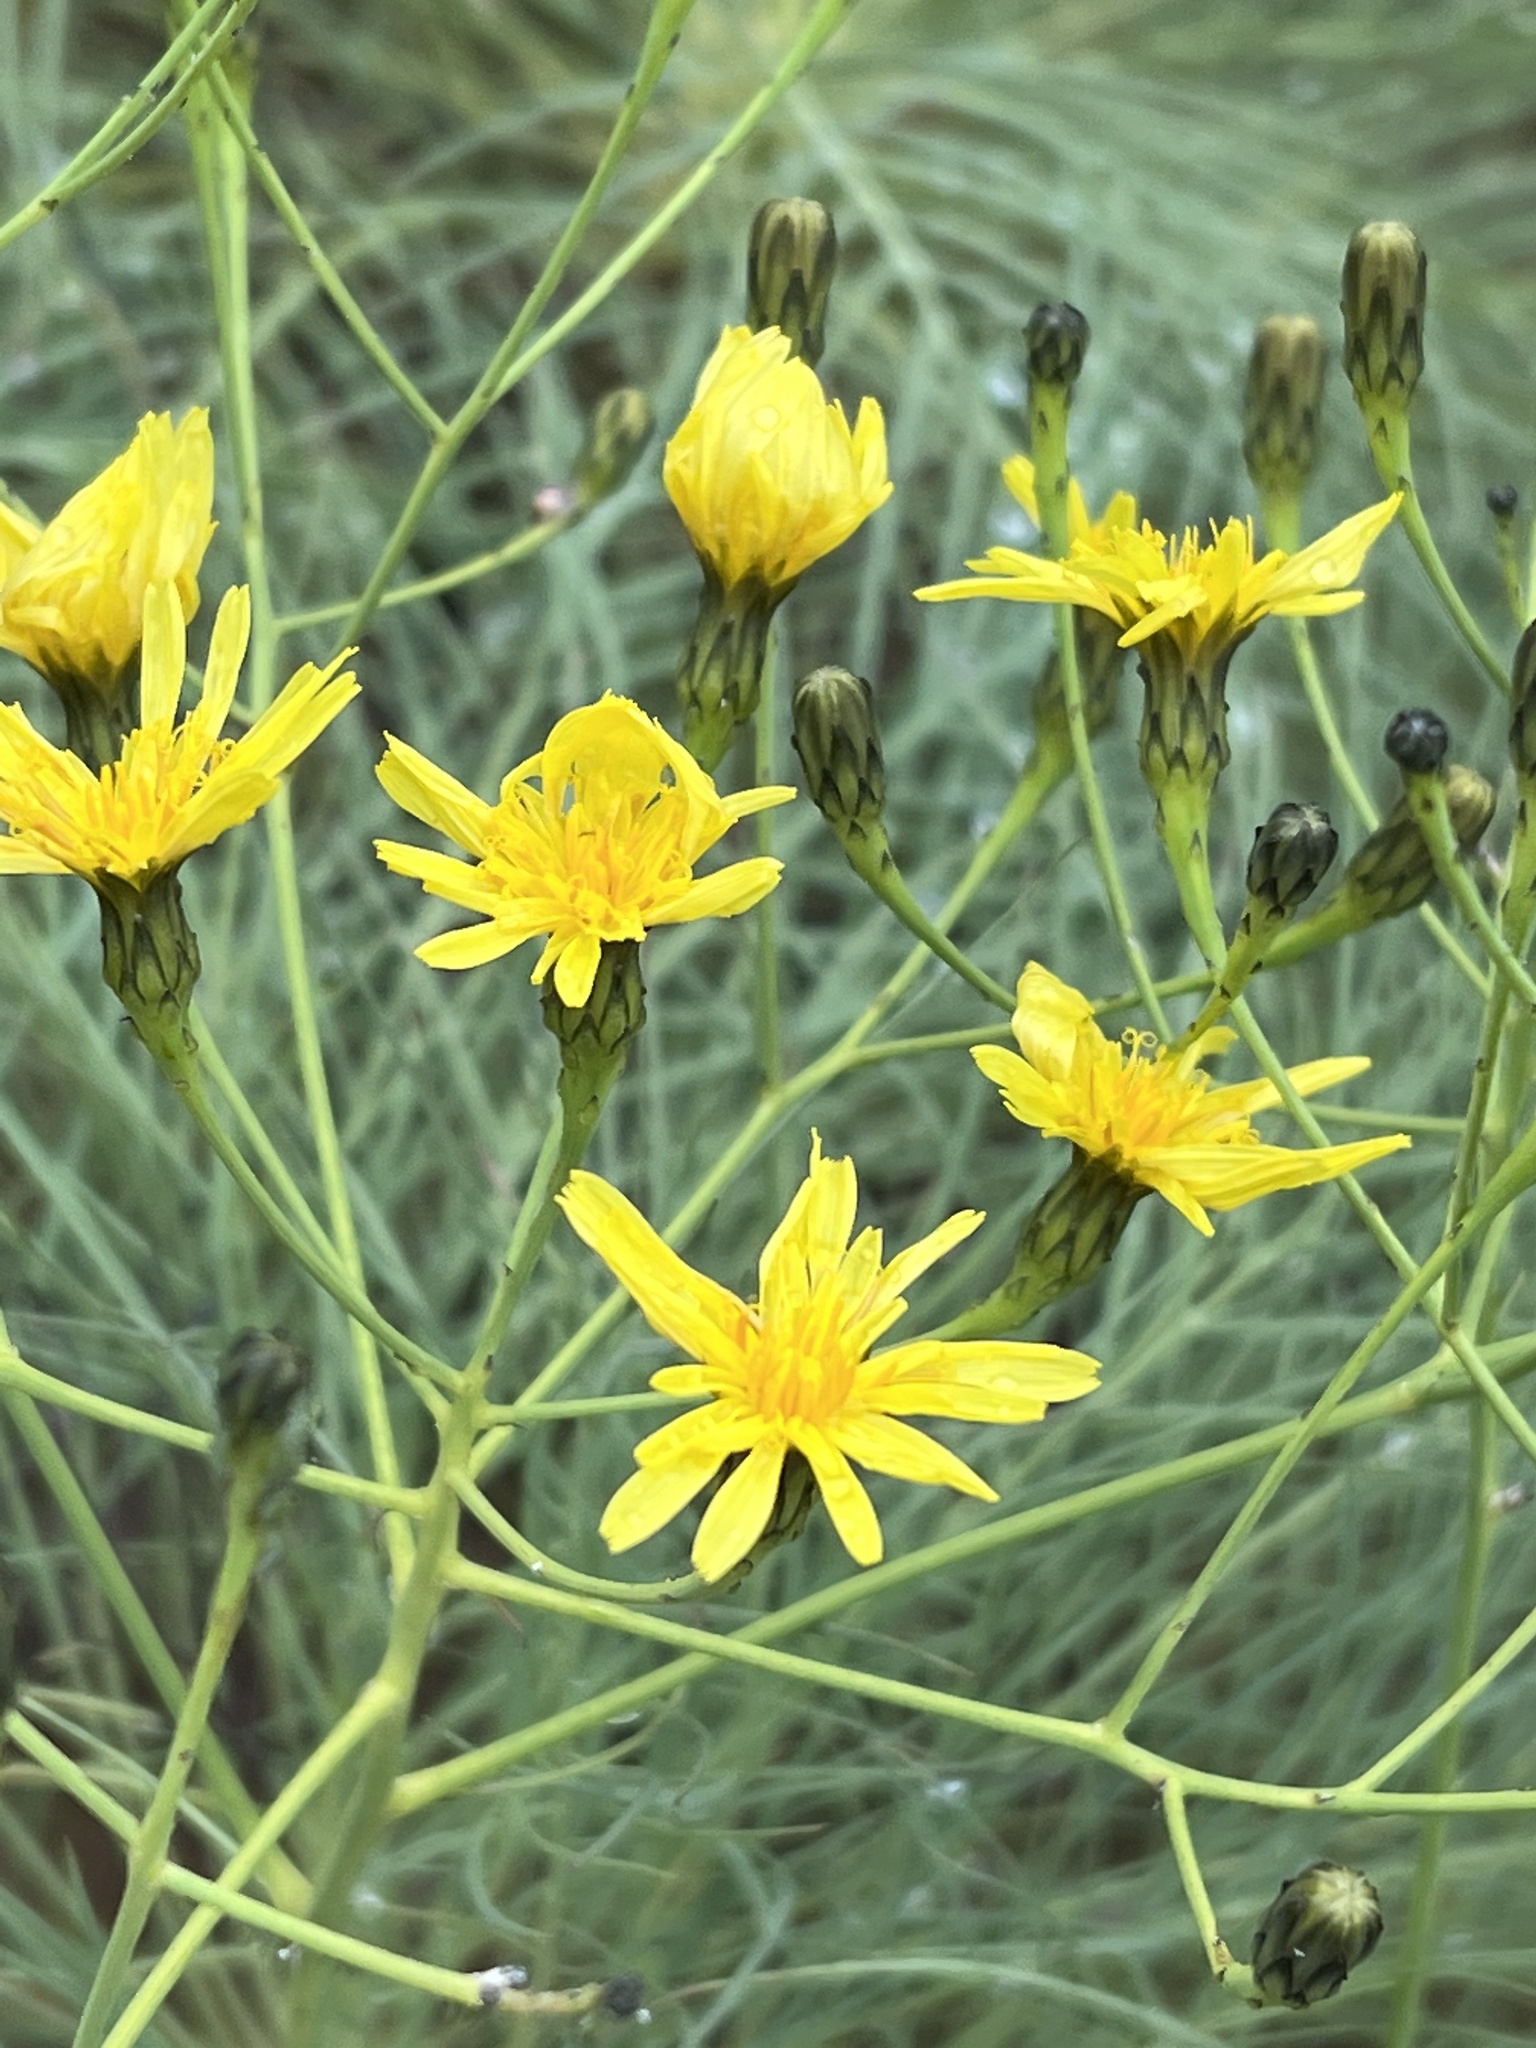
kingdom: Plantae
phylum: Tracheophyta
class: Magnoliopsida
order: Asterales
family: Asteraceae
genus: Sonchus
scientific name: Sonchus wildpretii
